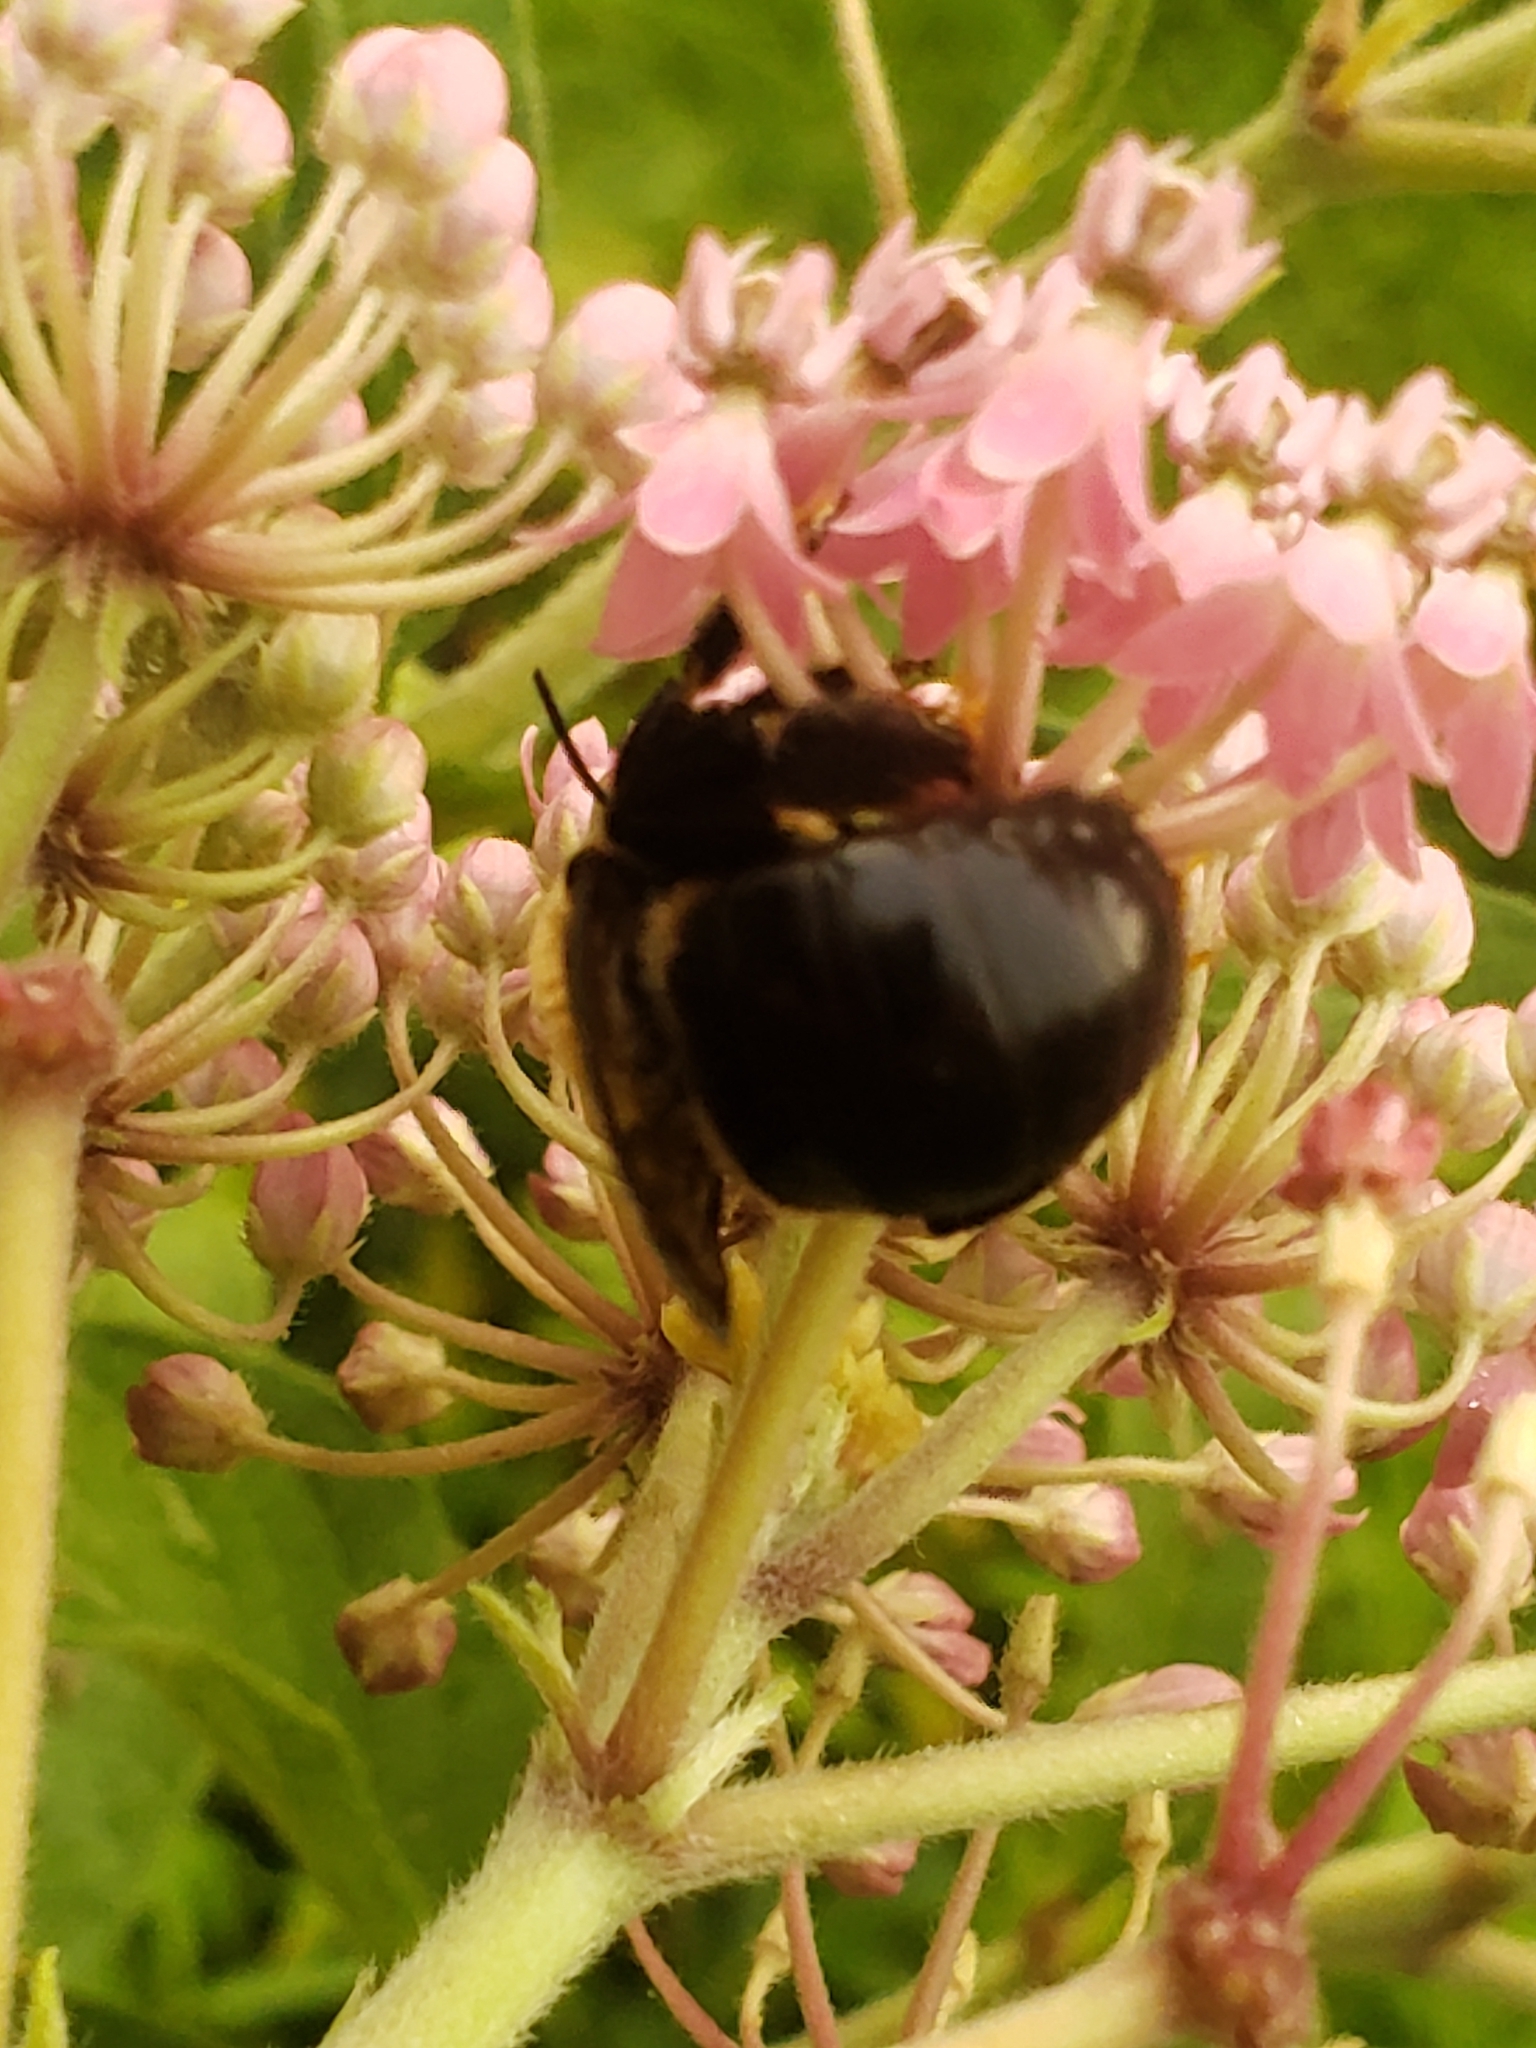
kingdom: Animalia
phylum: Arthropoda
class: Insecta
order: Hymenoptera
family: Apidae
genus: Xylocopa
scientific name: Xylocopa virginica
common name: Carpenter bee
